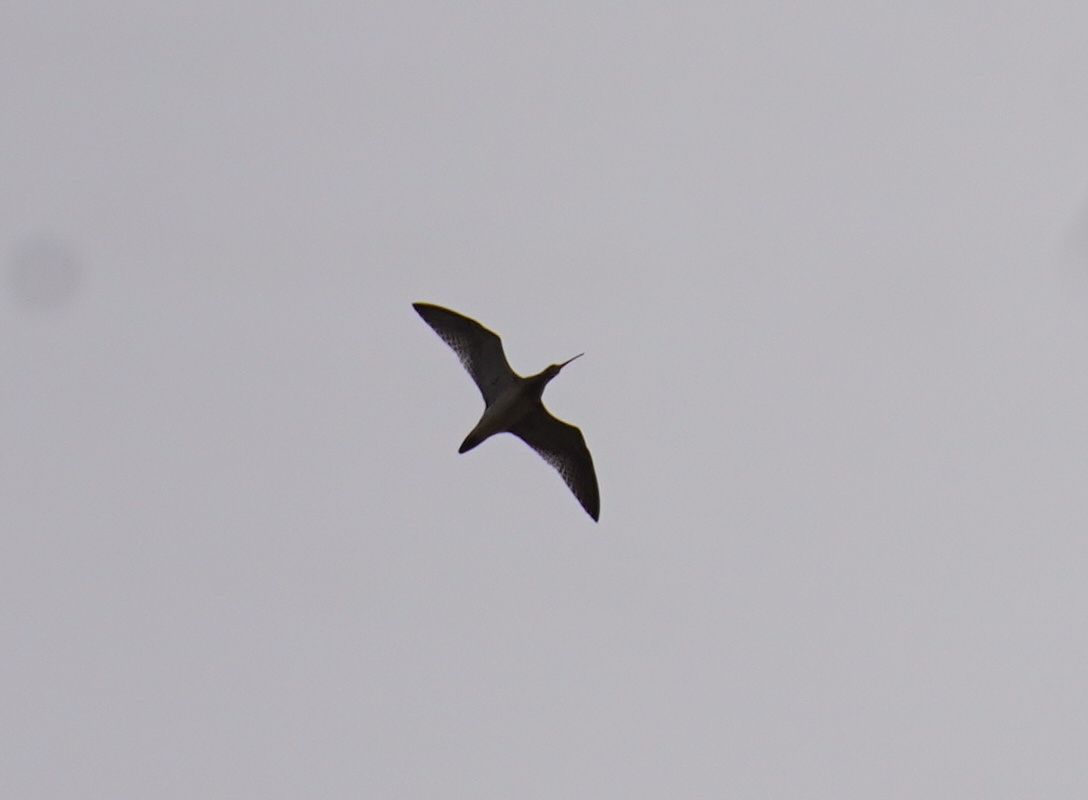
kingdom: Animalia
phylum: Chordata
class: Aves
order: Charadriiformes
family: Scolopacidae
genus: Numenius
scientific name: Numenius phaeopus
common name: Whimbrel
